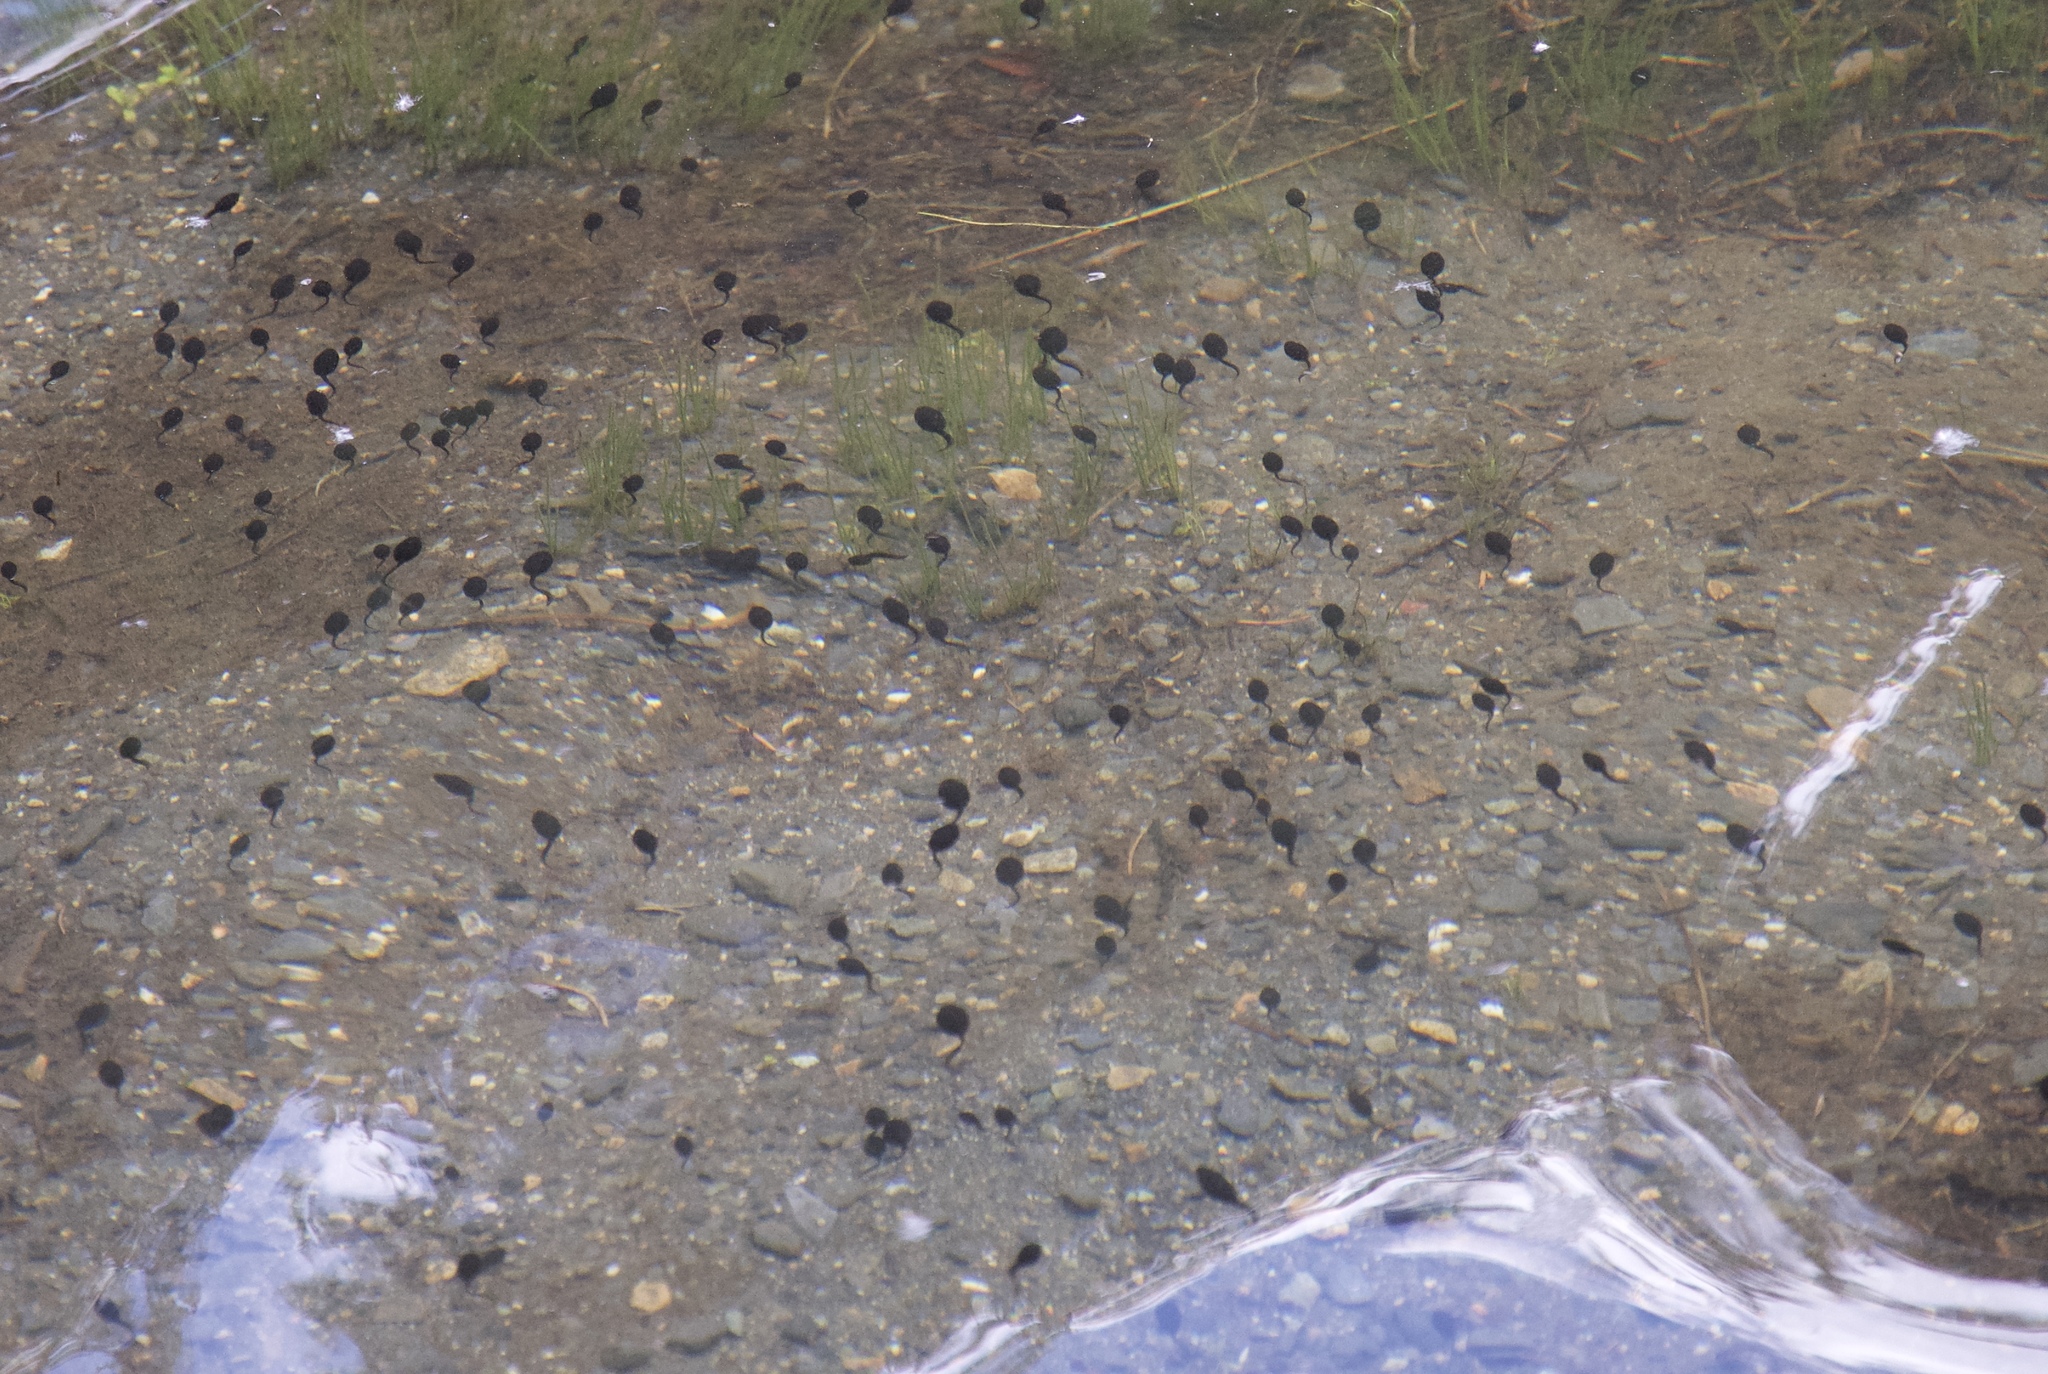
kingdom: Animalia
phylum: Chordata
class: Amphibia
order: Anura
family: Bufonidae
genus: Anaxyrus
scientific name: Anaxyrus boreas
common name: Western toad
